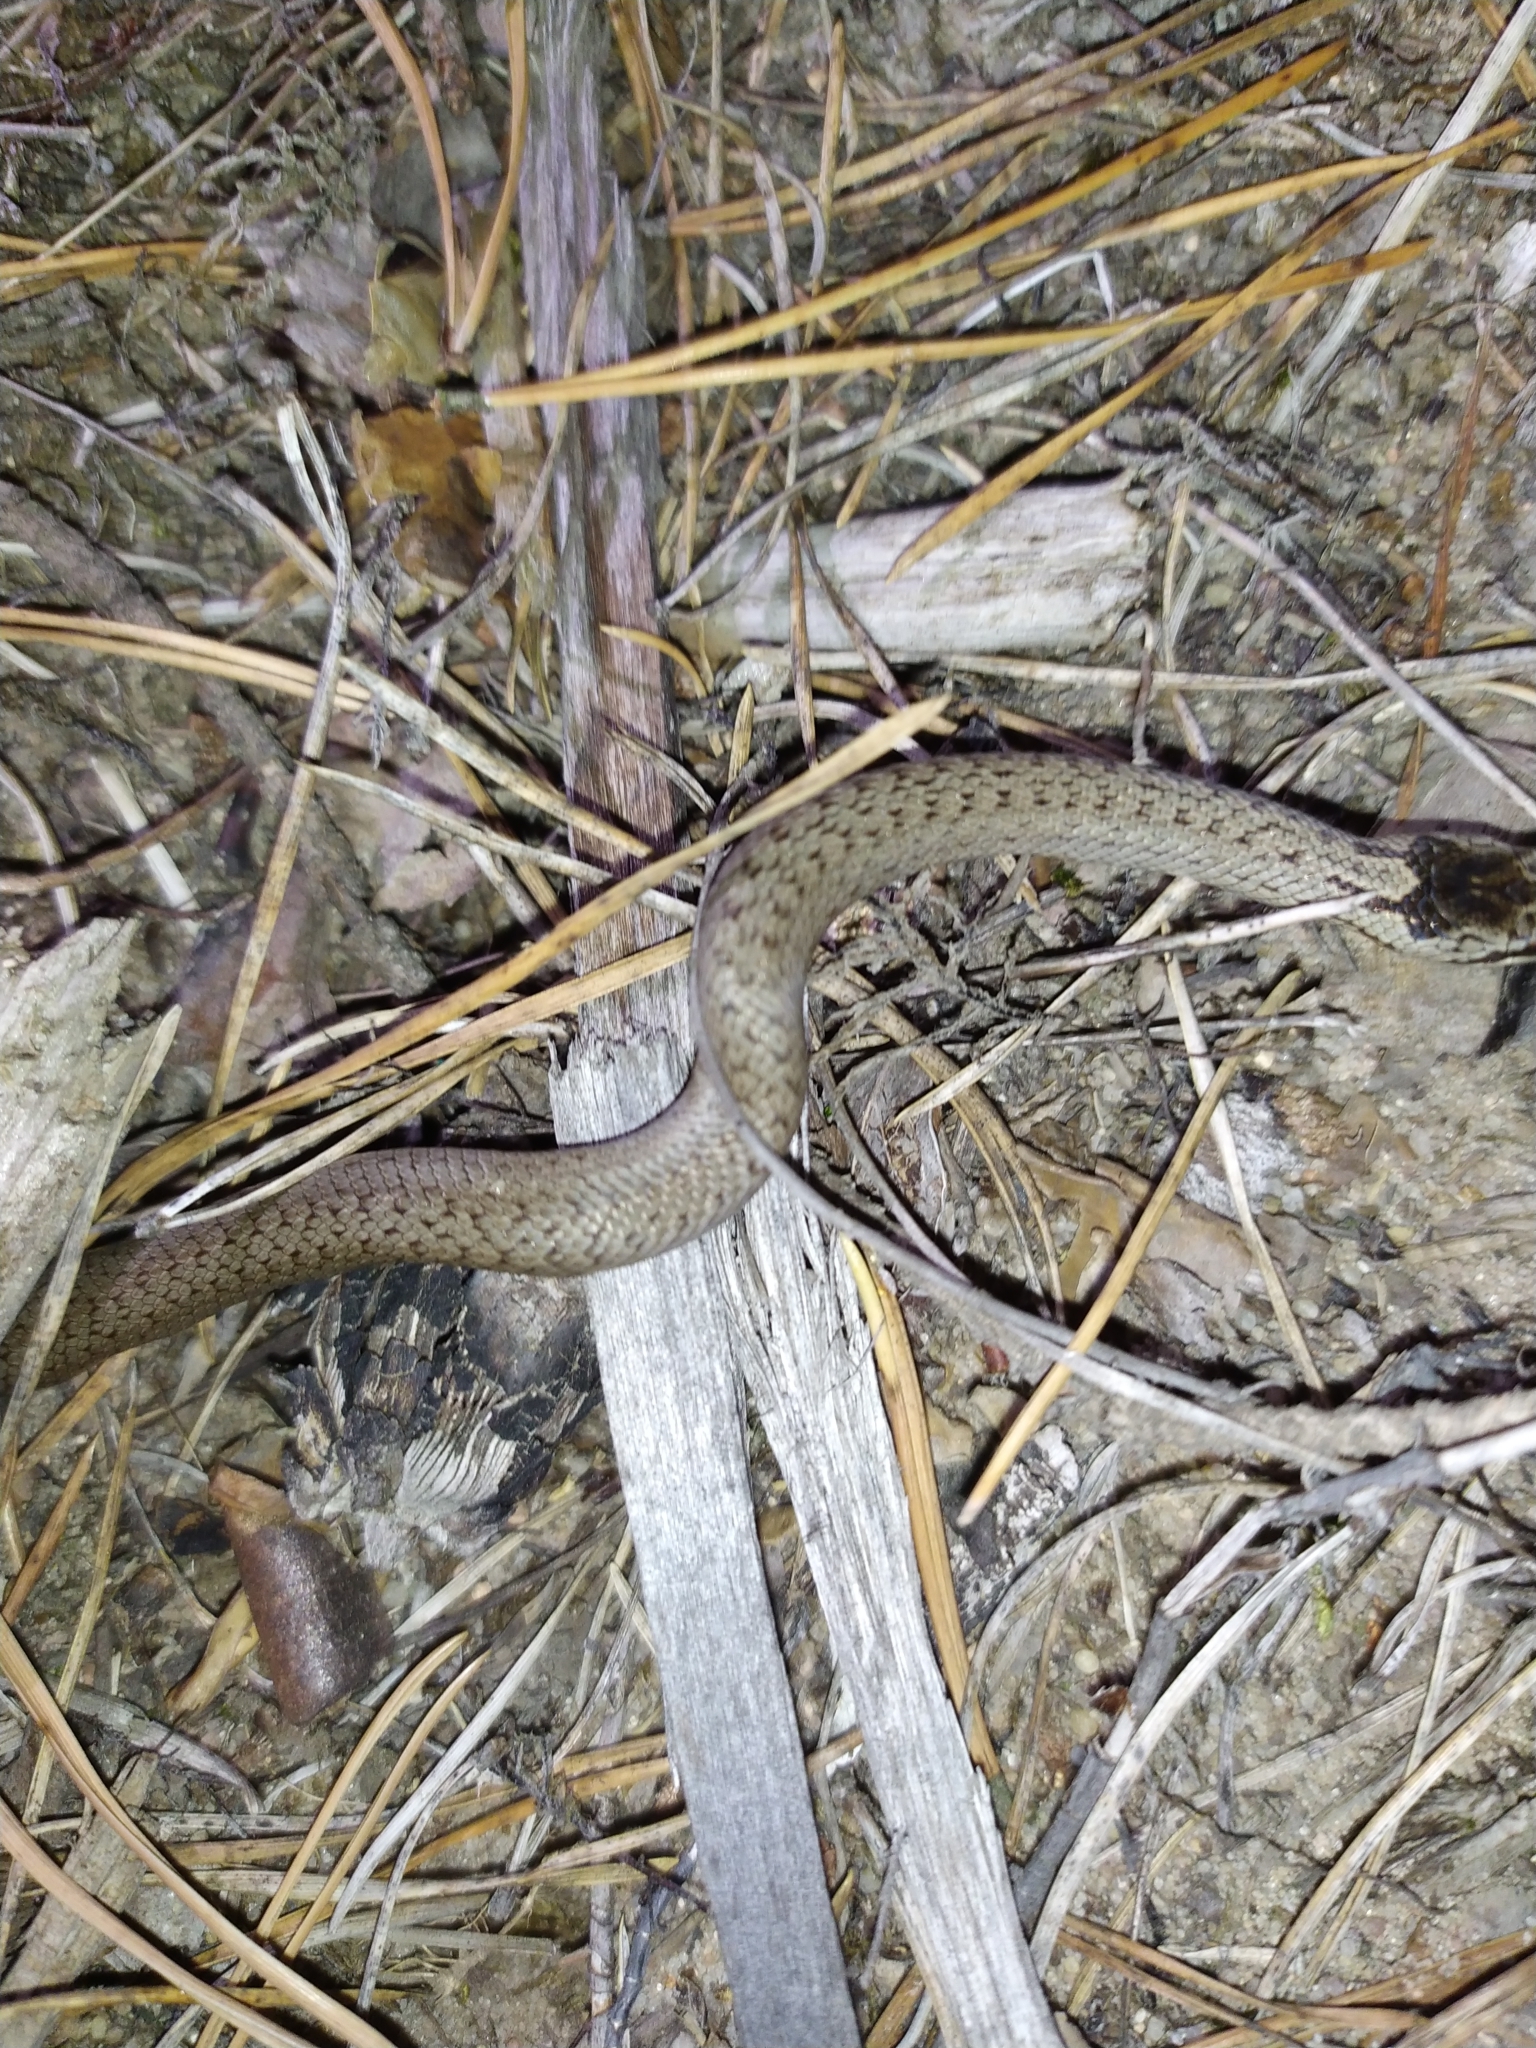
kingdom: Animalia
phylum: Chordata
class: Squamata
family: Colubridae
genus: Coronella
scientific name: Coronella austriaca
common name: Smooth snake
